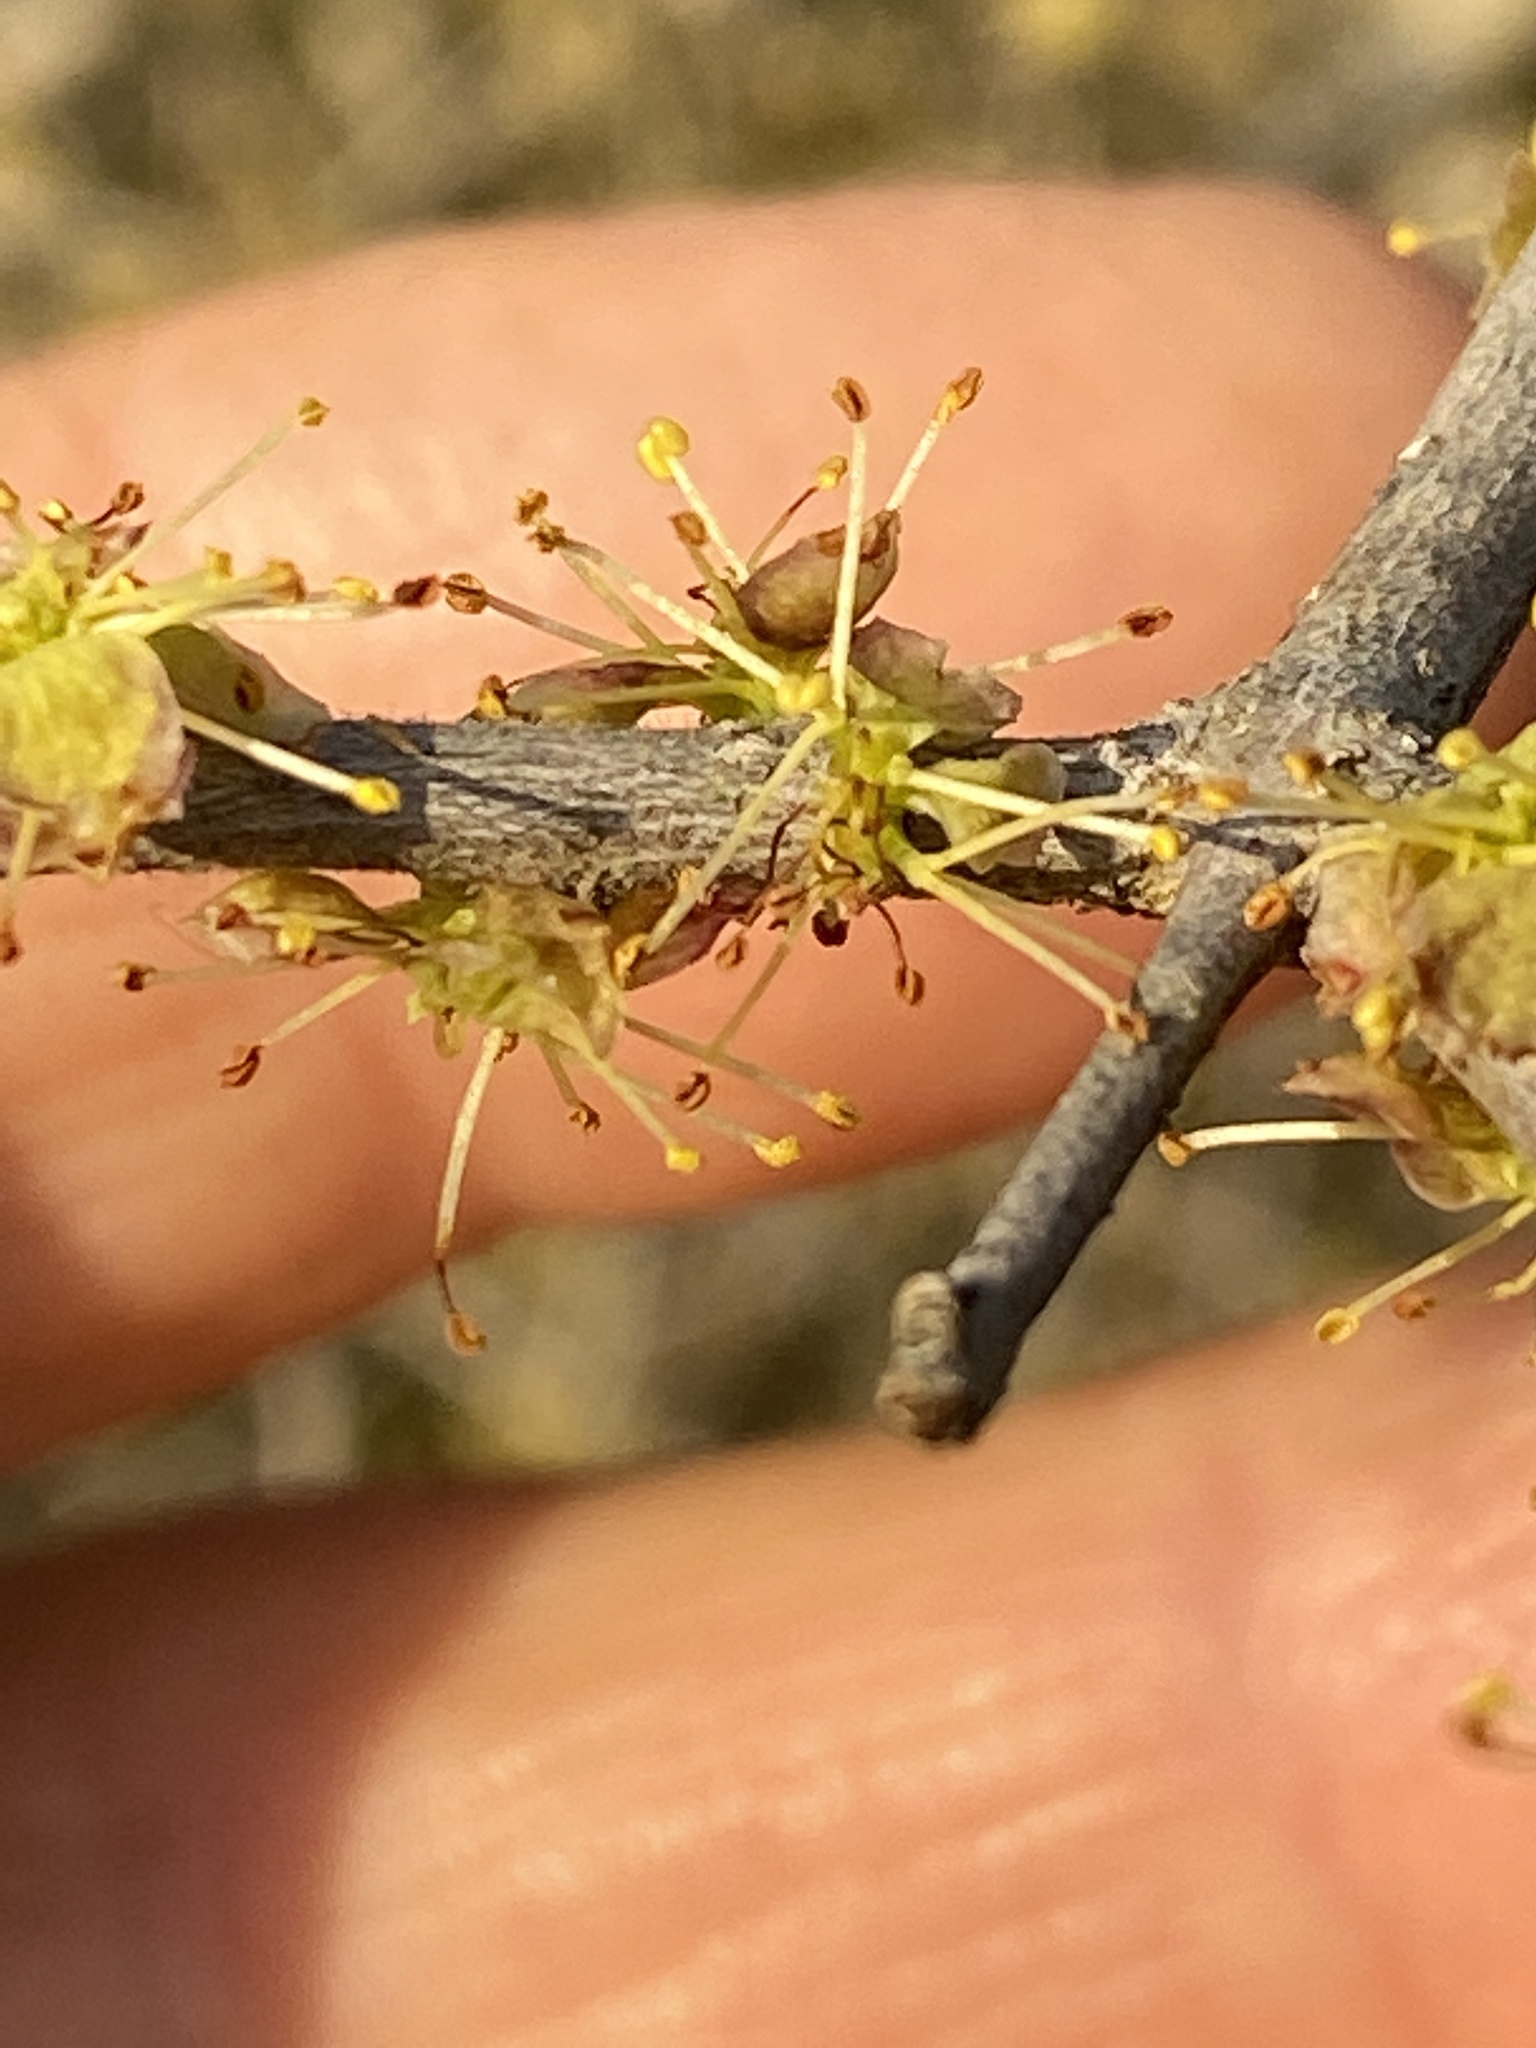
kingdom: Plantae
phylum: Tracheophyta
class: Magnoliopsida
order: Lamiales
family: Oleaceae
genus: Forestiera
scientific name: Forestiera pubescens
